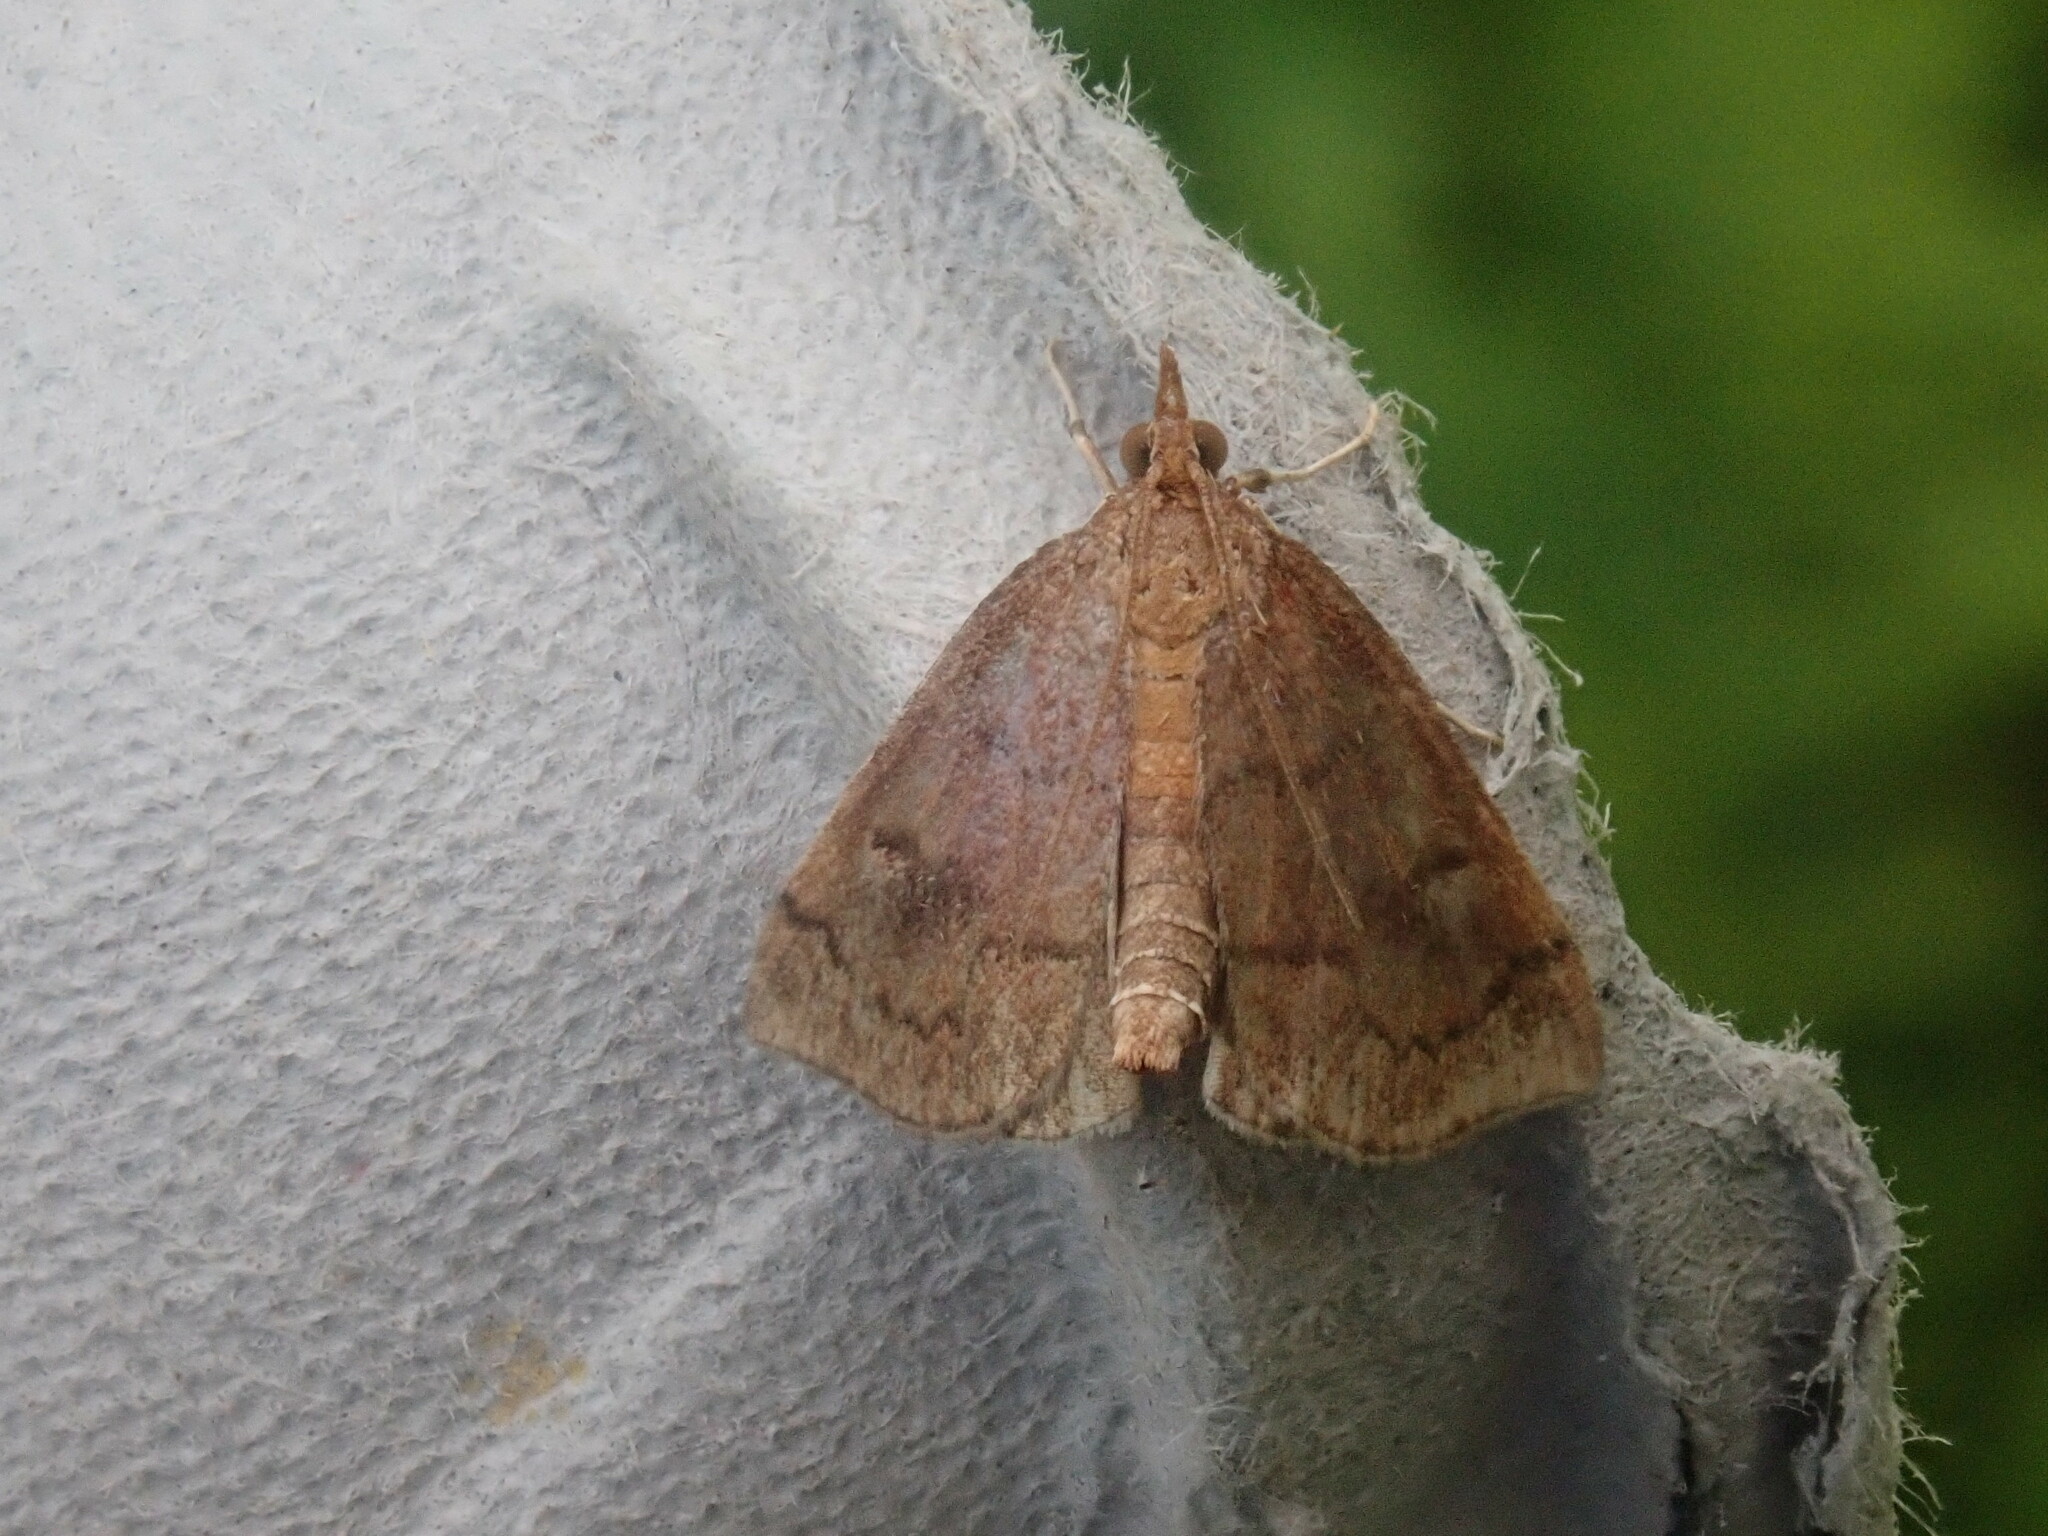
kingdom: Animalia
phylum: Arthropoda
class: Insecta
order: Lepidoptera
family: Crambidae
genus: Fumibotys
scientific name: Fumibotys fumalis
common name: Mint root borer moth
